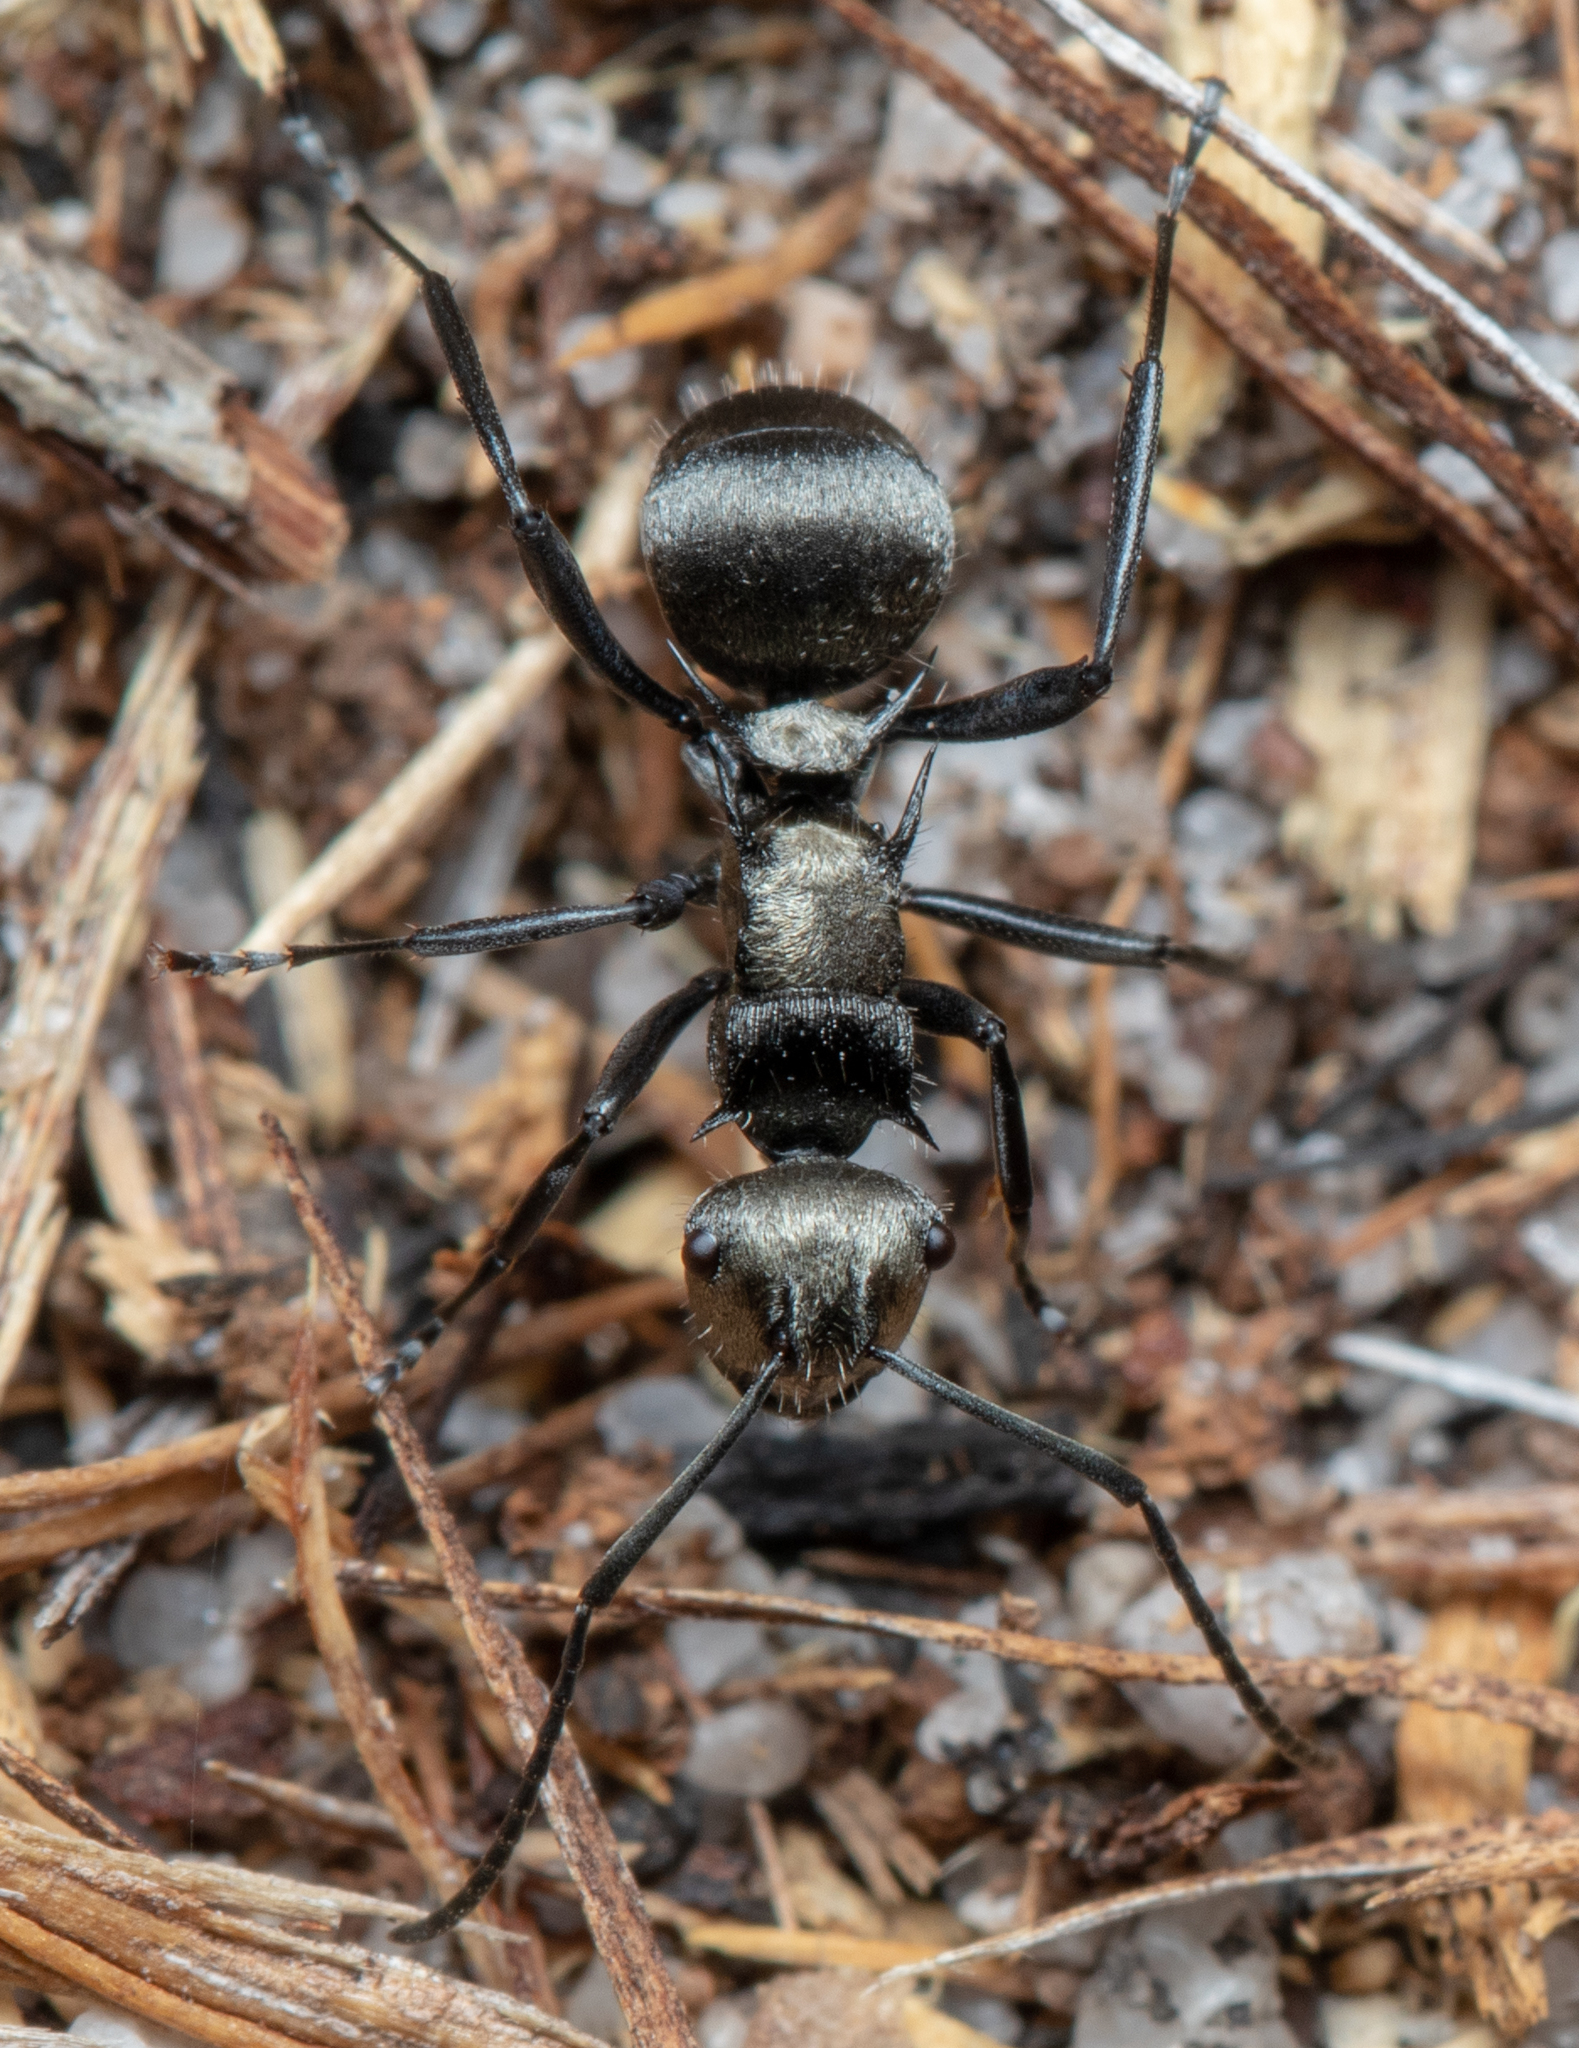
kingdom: Animalia
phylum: Arthropoda
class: Insecta
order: Hymenoptera
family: Formicidae
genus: Polyrhachis
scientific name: Polyrhachis daemeli
